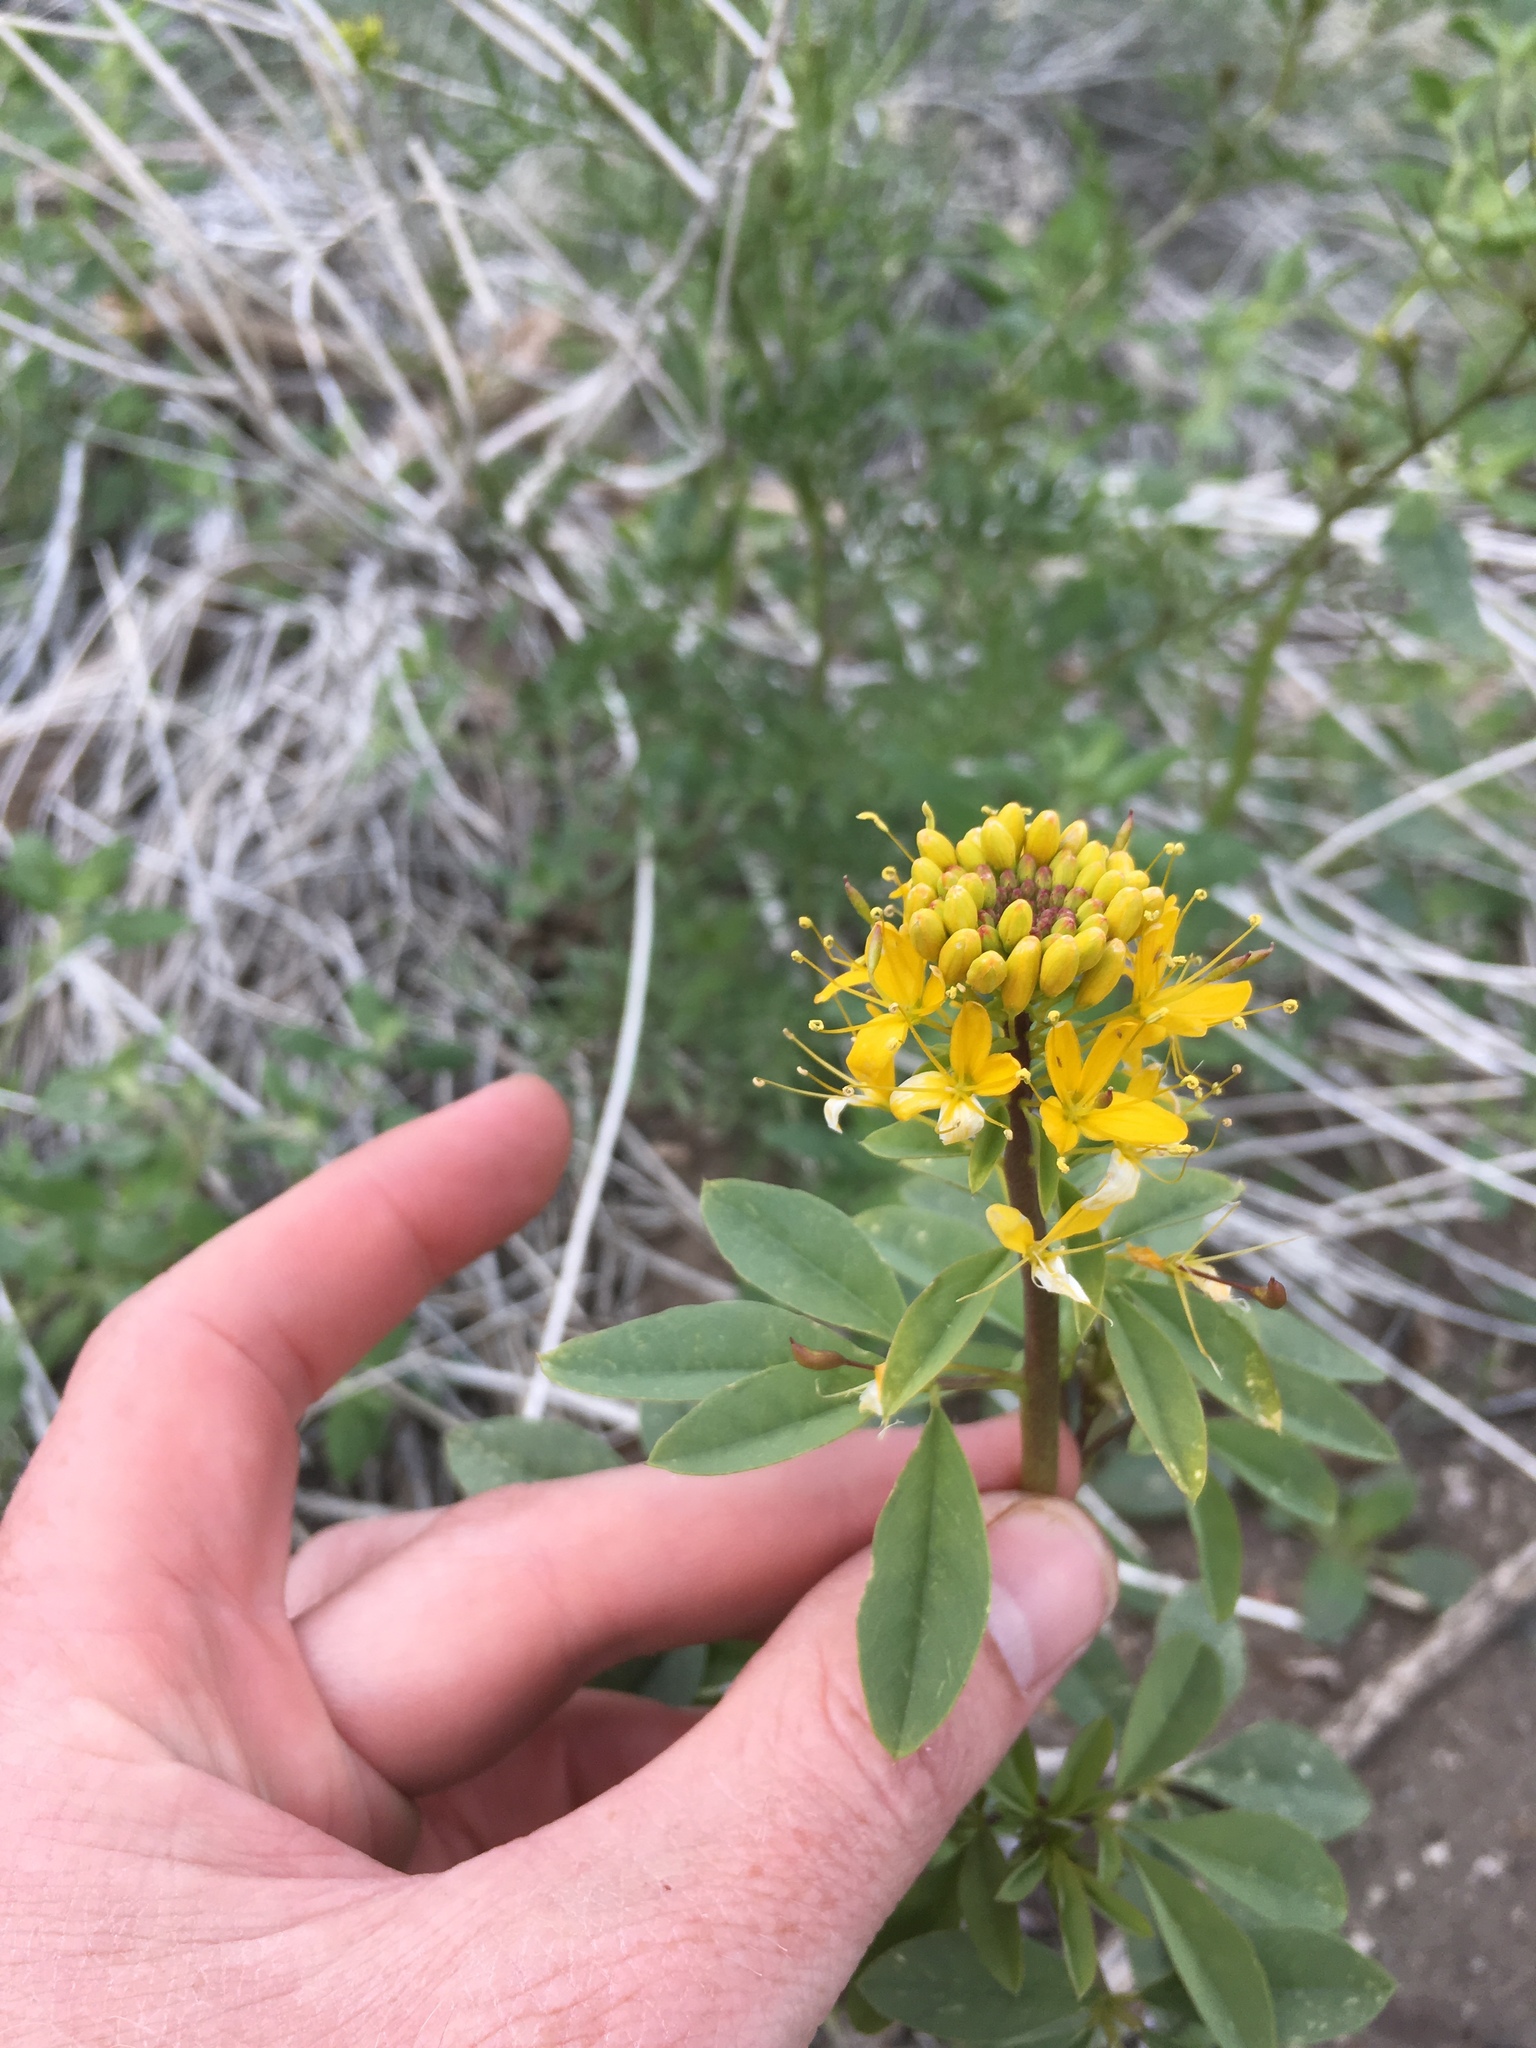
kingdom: Plantae
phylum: Tracheophyta
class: Magnoliopsida
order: Brassicales
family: Cleomaceae
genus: Cleomella
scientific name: Cleomella lutea
